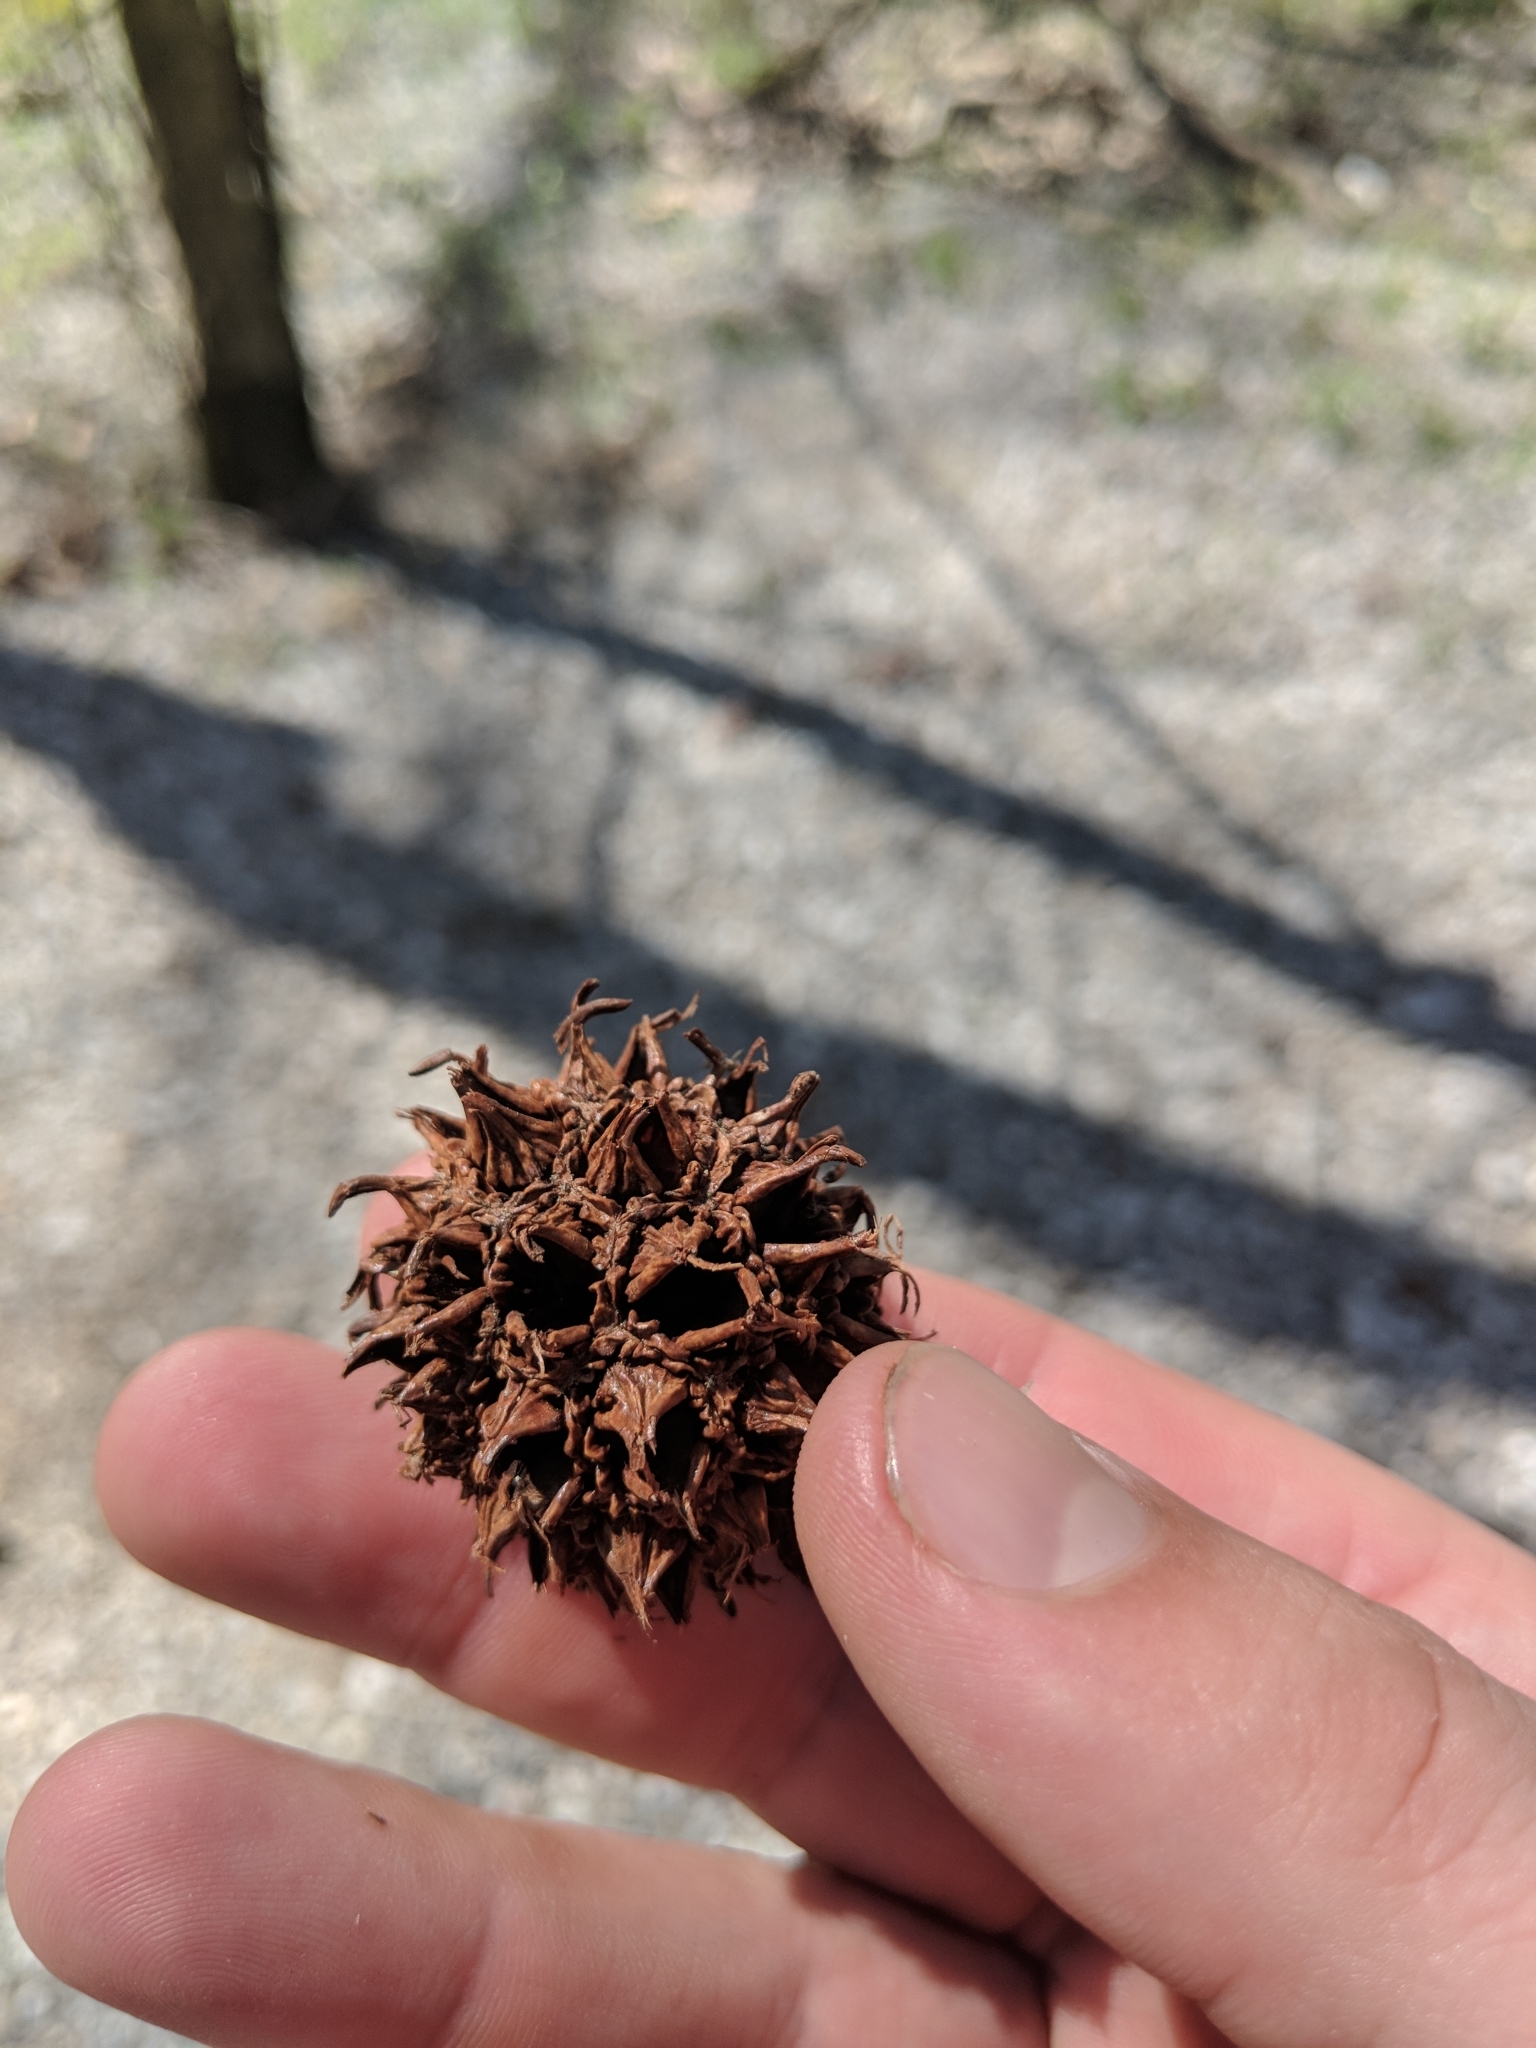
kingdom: Plantae
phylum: Tracheophyta
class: Magnoliopsida
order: Saxifragales
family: Altingiaceae
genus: Liquidambar
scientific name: Liquidambar styraciflua
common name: Sweet gum
